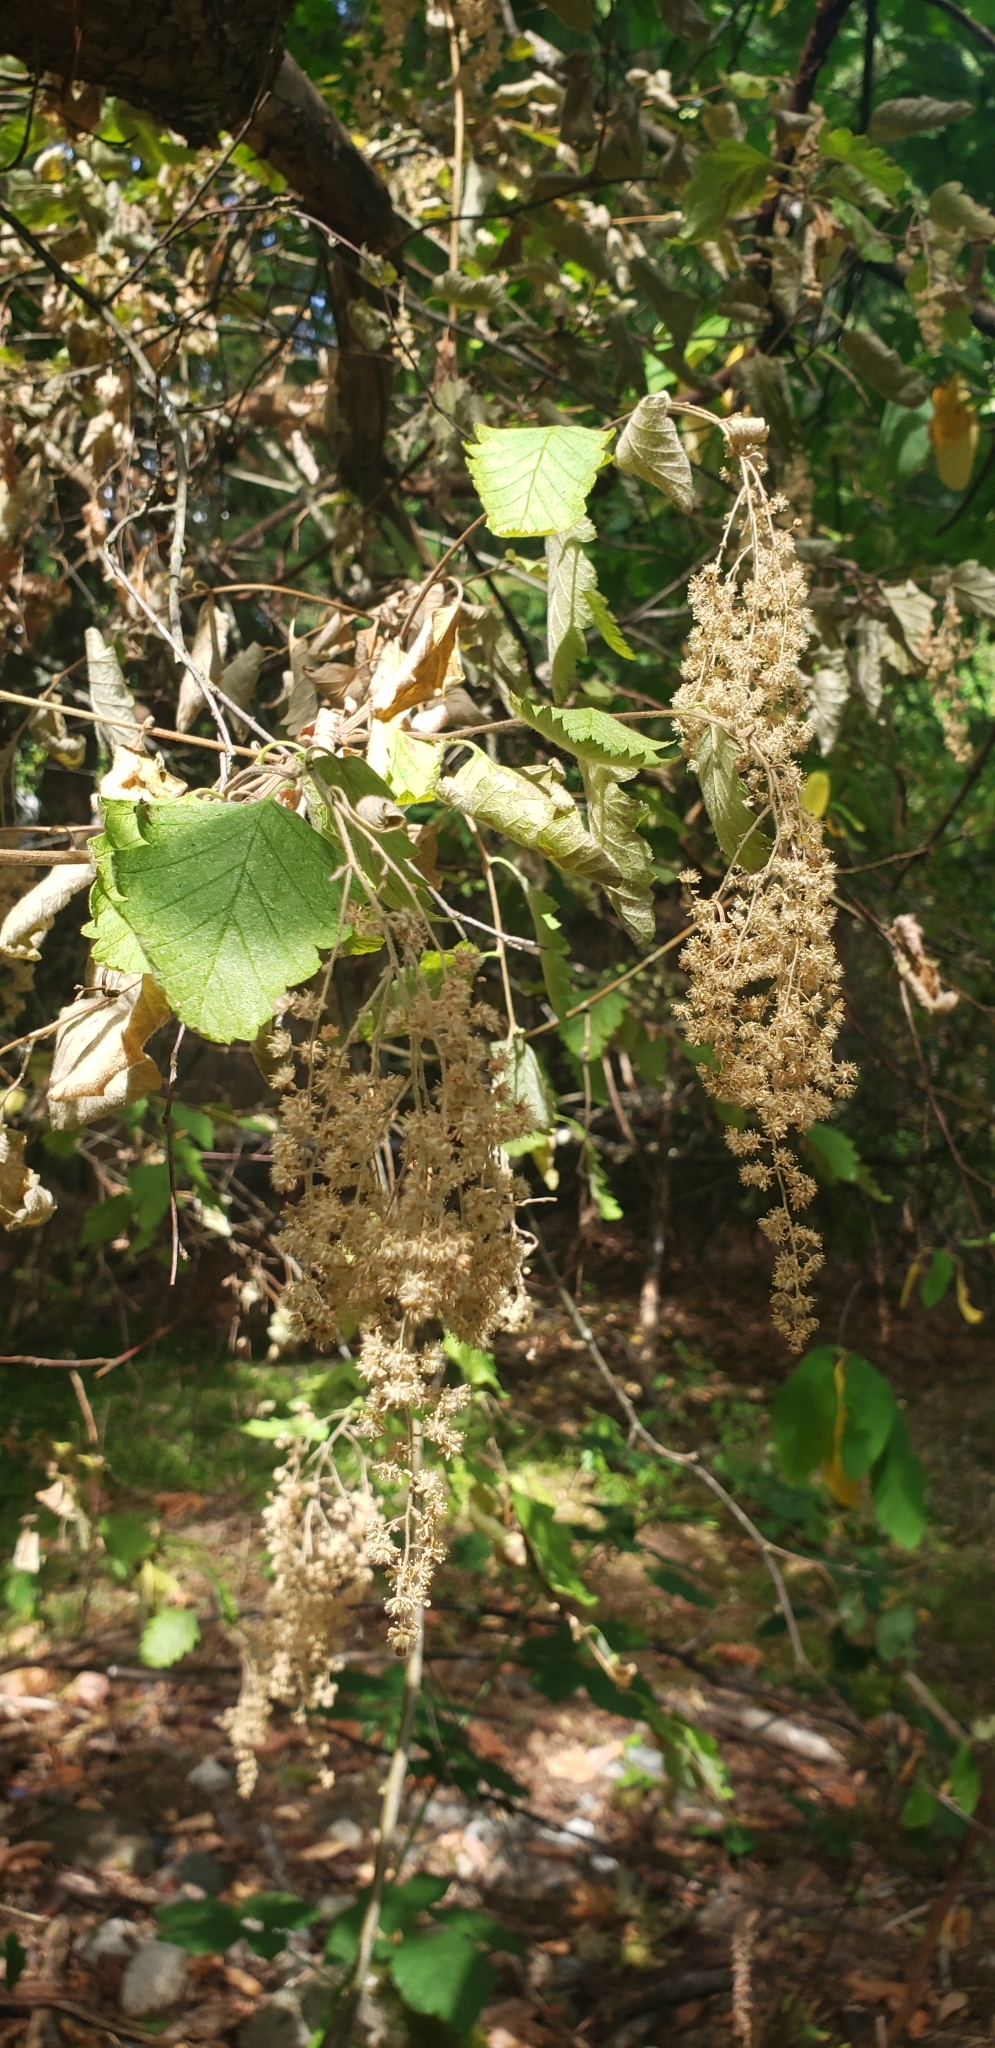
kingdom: Plantae
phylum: Tracheophyta
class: Magnoliopsida
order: Rosales
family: Rosaceae
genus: Holodiscus
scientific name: Holodiscus discolor
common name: Oceanspray
